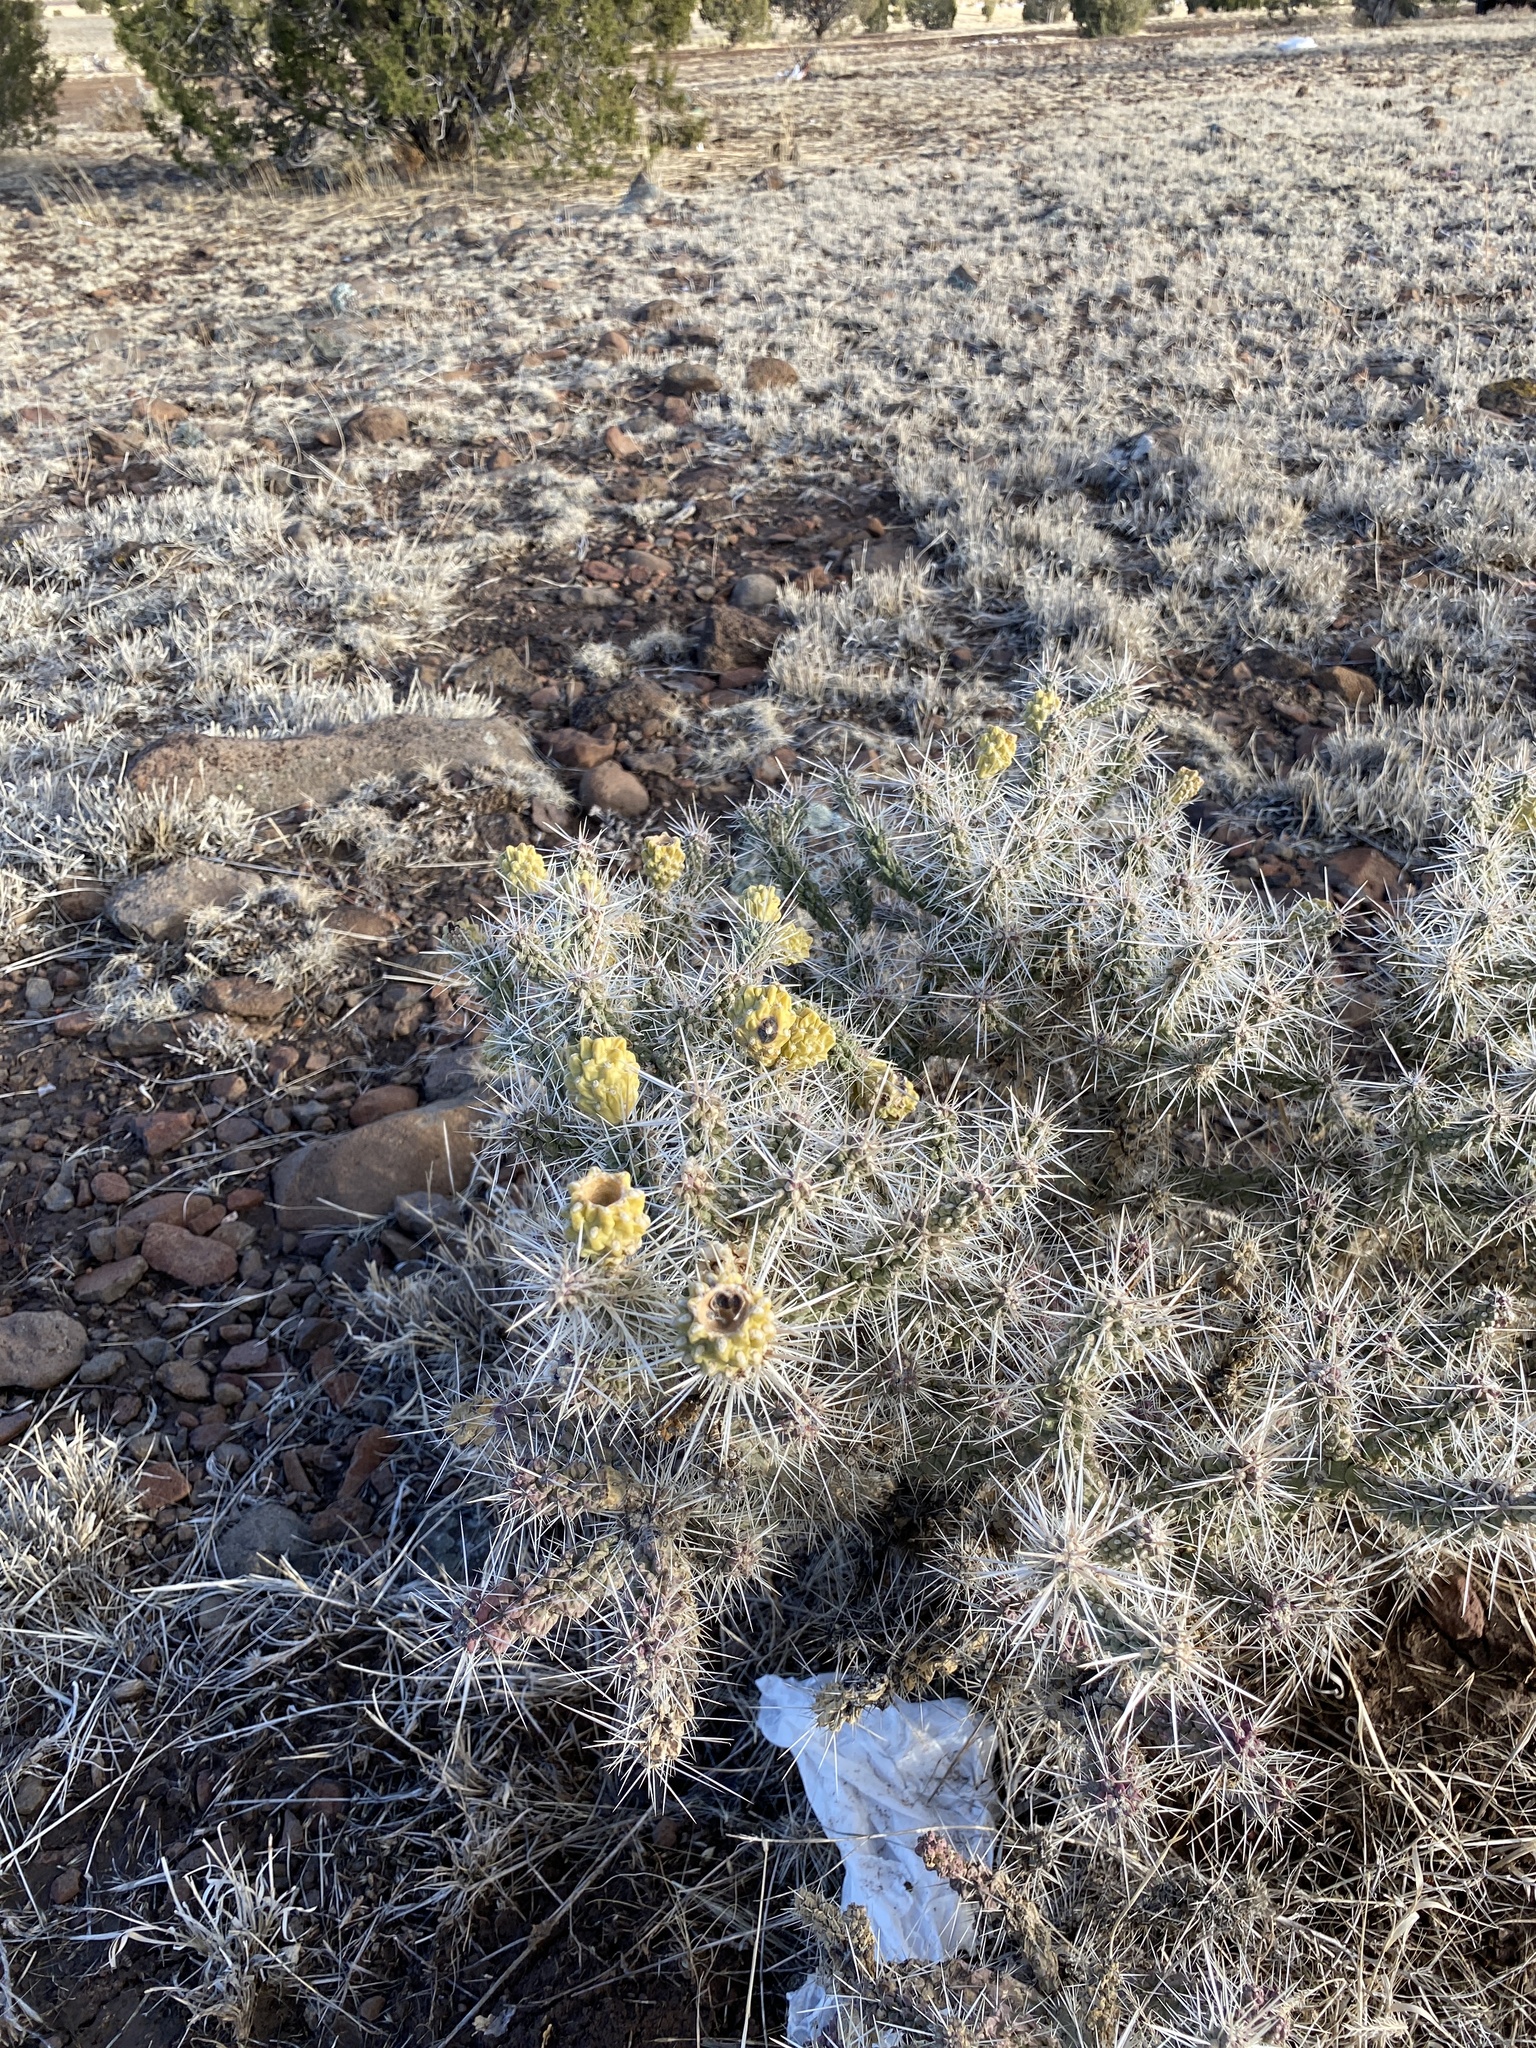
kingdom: Plantae
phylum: Tracheophyta
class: Magnoliopsida
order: Caryophyllales
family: Cactaceae
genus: Cylindropuntia
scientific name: Cylindropuntia whipplei
